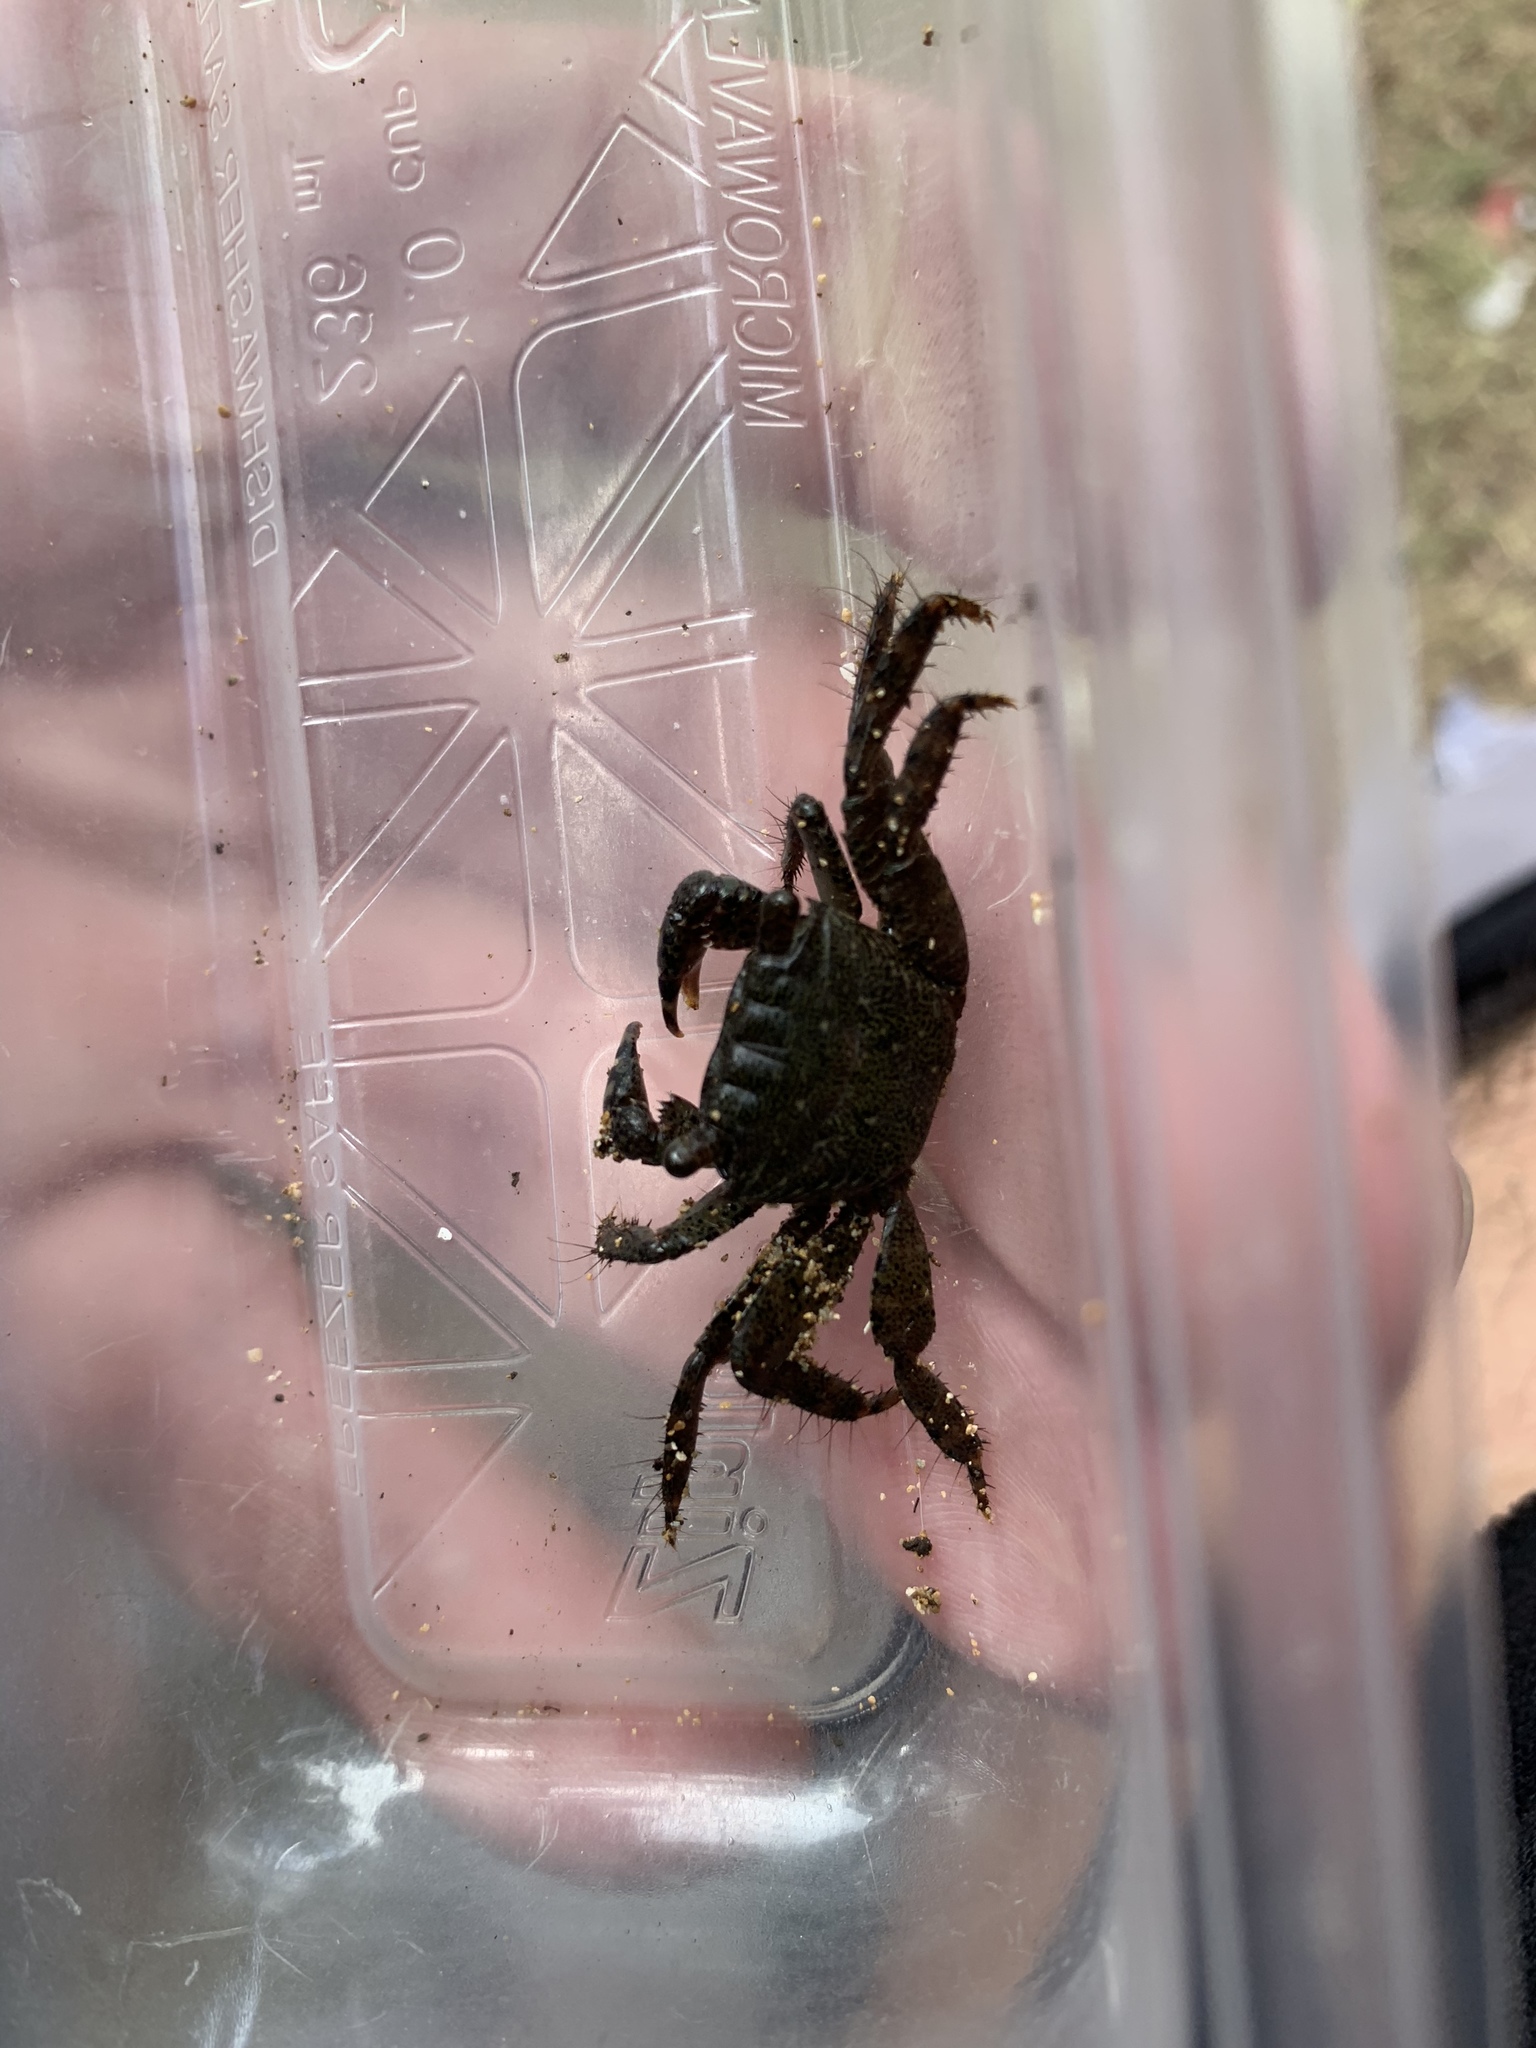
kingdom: Animalia
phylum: Arthropoda
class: Malacostraca
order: Decapoda
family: Grapsidae
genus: Metopograpsus
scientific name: Metopograpsus thukuhar
